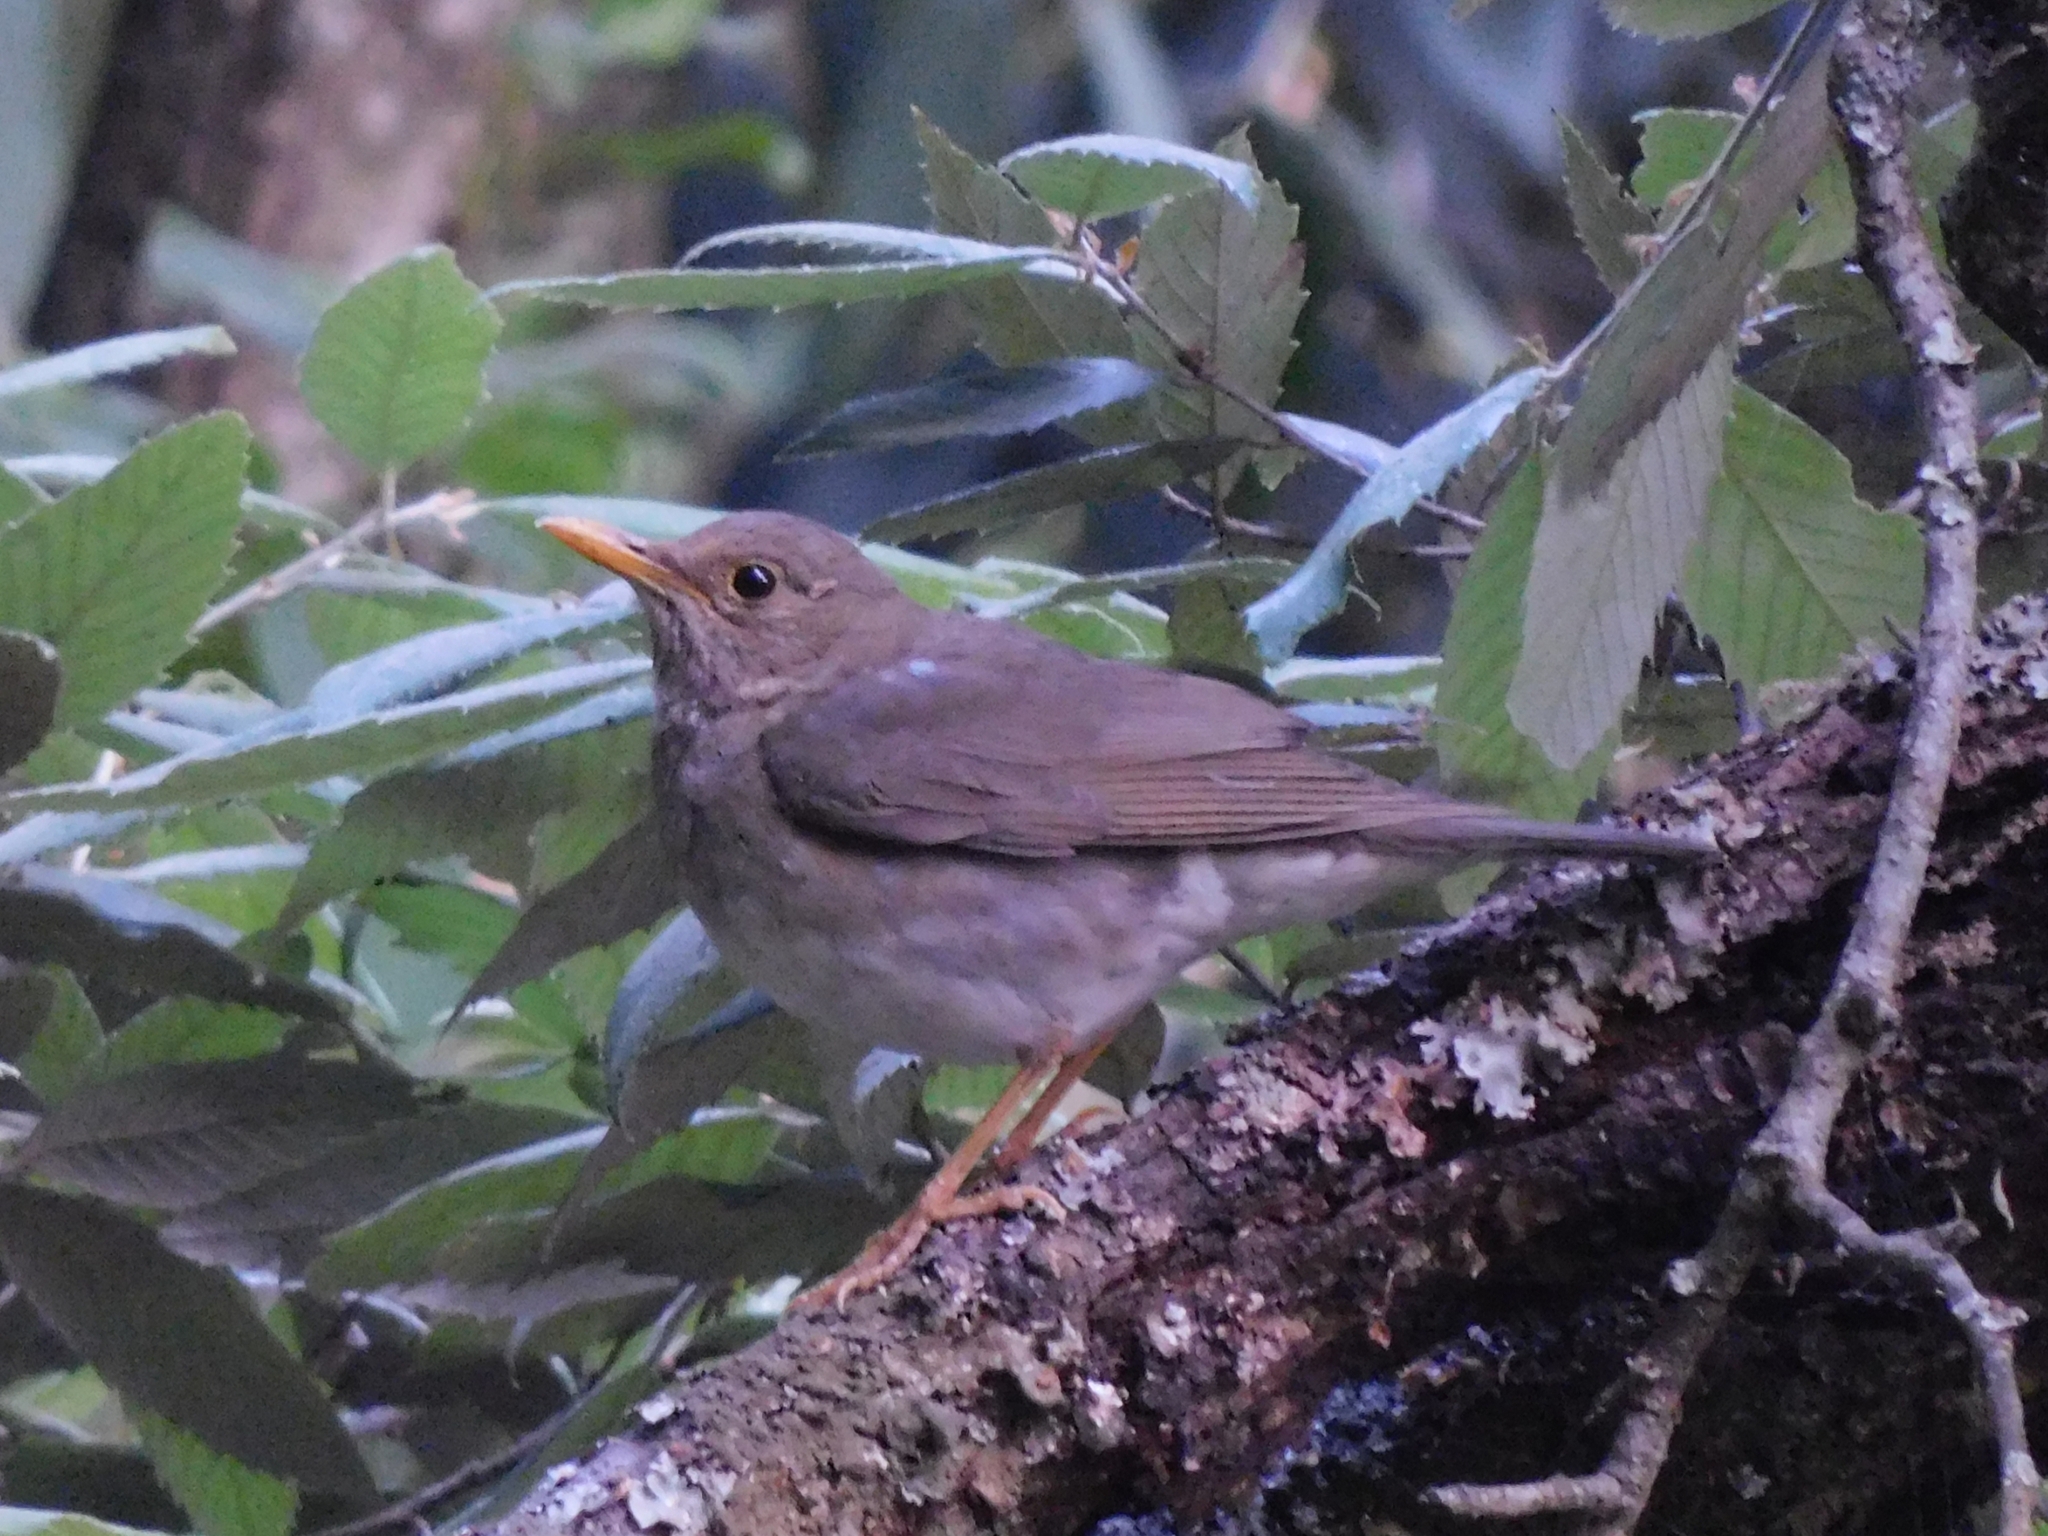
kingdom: Animalia
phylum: Chordata
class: Aves
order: Passeriformes
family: Turdidae
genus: Turdus
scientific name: Turdus unicolor
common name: Tickell's thrush
